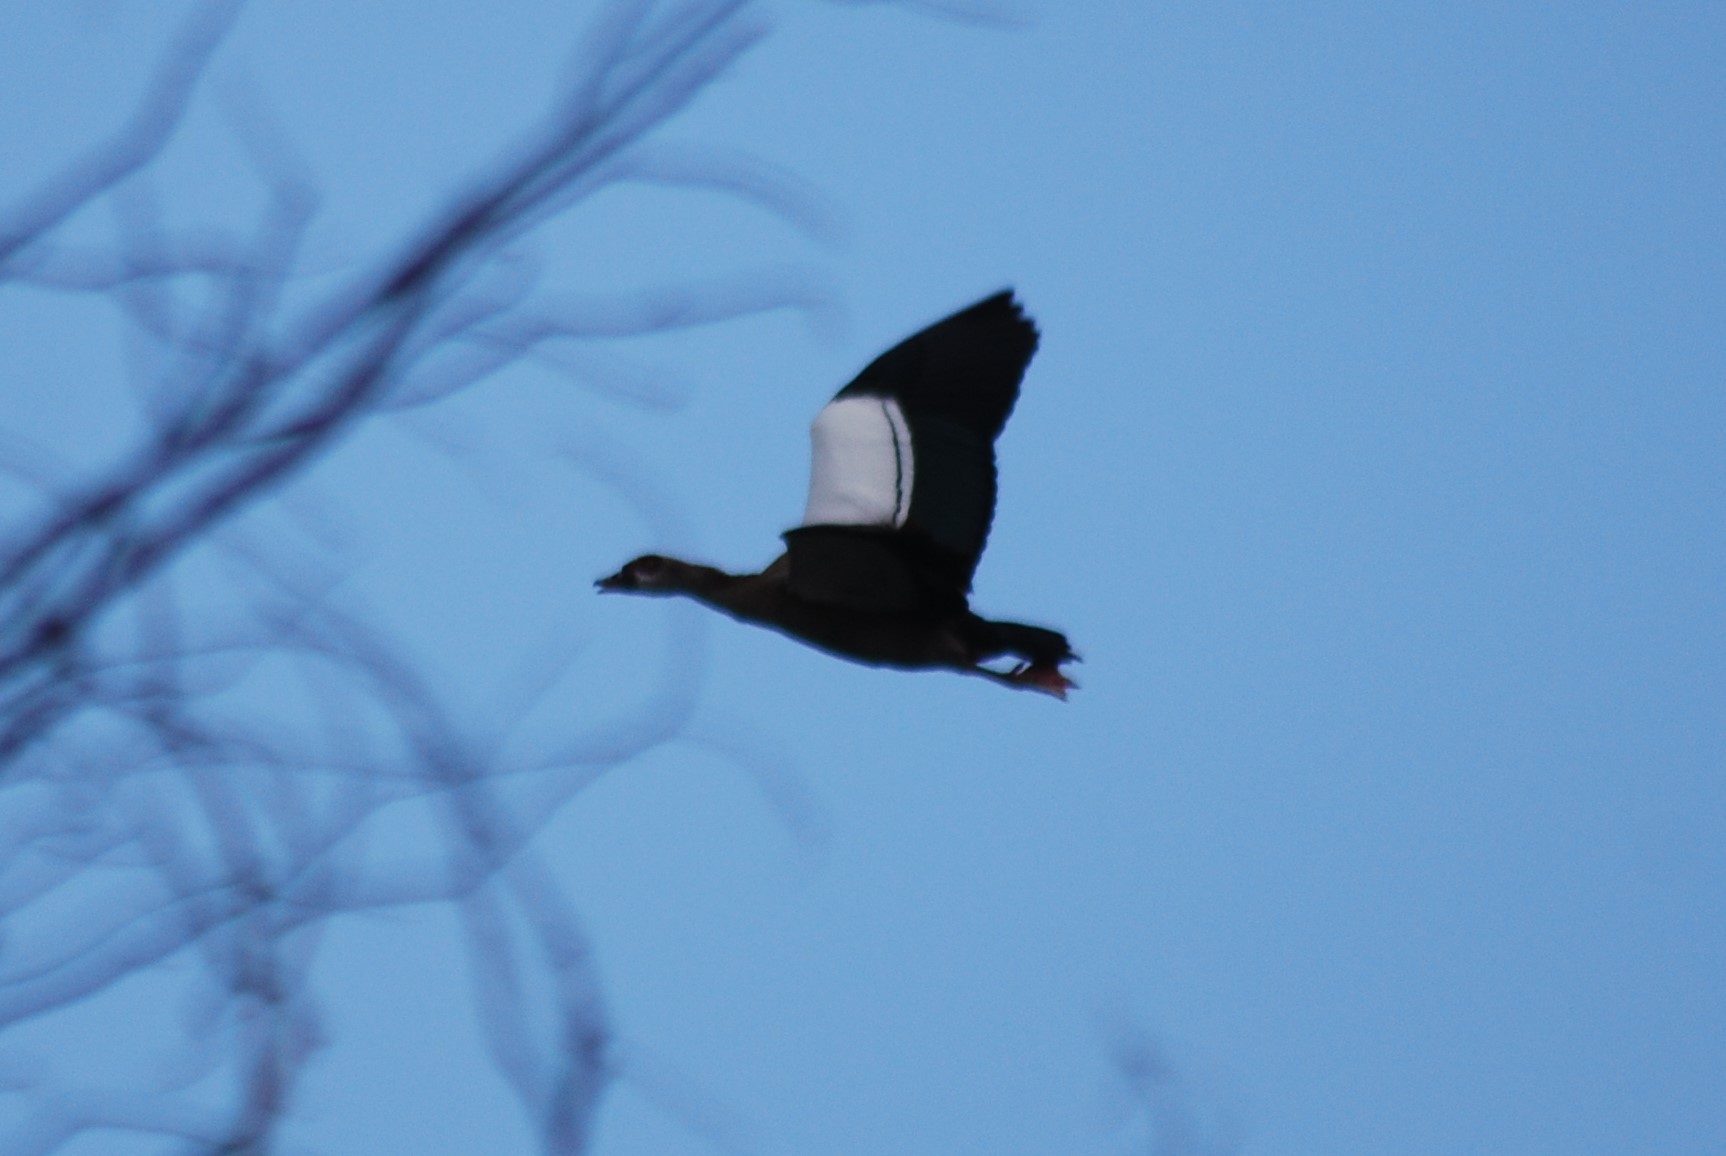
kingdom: Animalia
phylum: Chordata
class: Aves
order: Anseriformes
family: Anatidae
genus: Alopochen
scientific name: Alopochen aegyptiaca
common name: Egyptian goose
